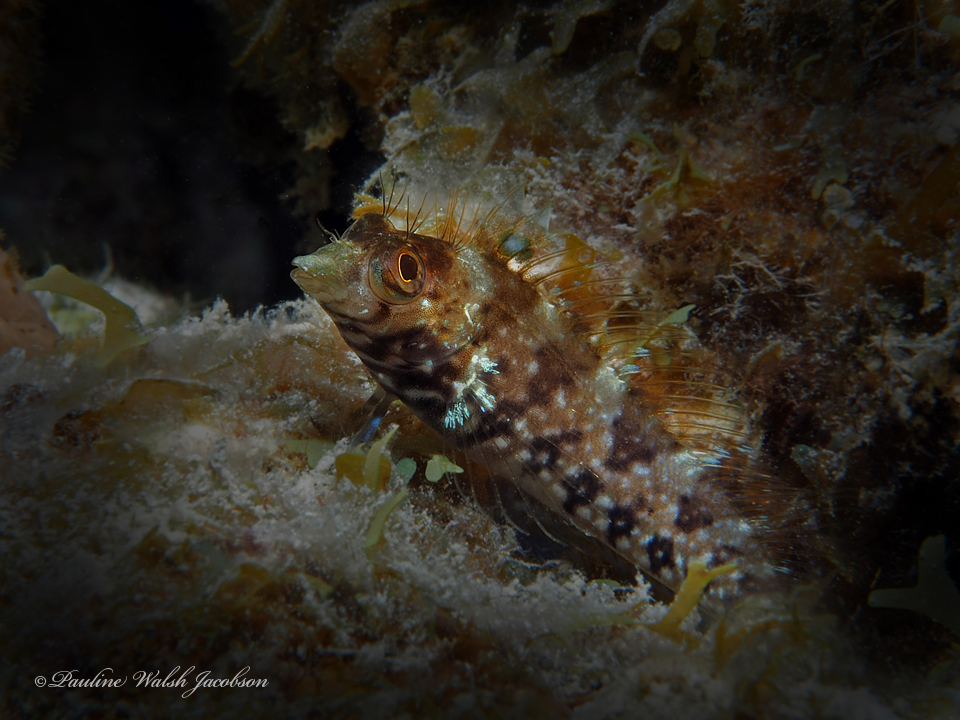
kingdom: Animalia
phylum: Chordata
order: Perciformes
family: Labrisomidae
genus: Malacoctenus
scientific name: Malacoctenus boehlkei
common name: Diamond blenny
